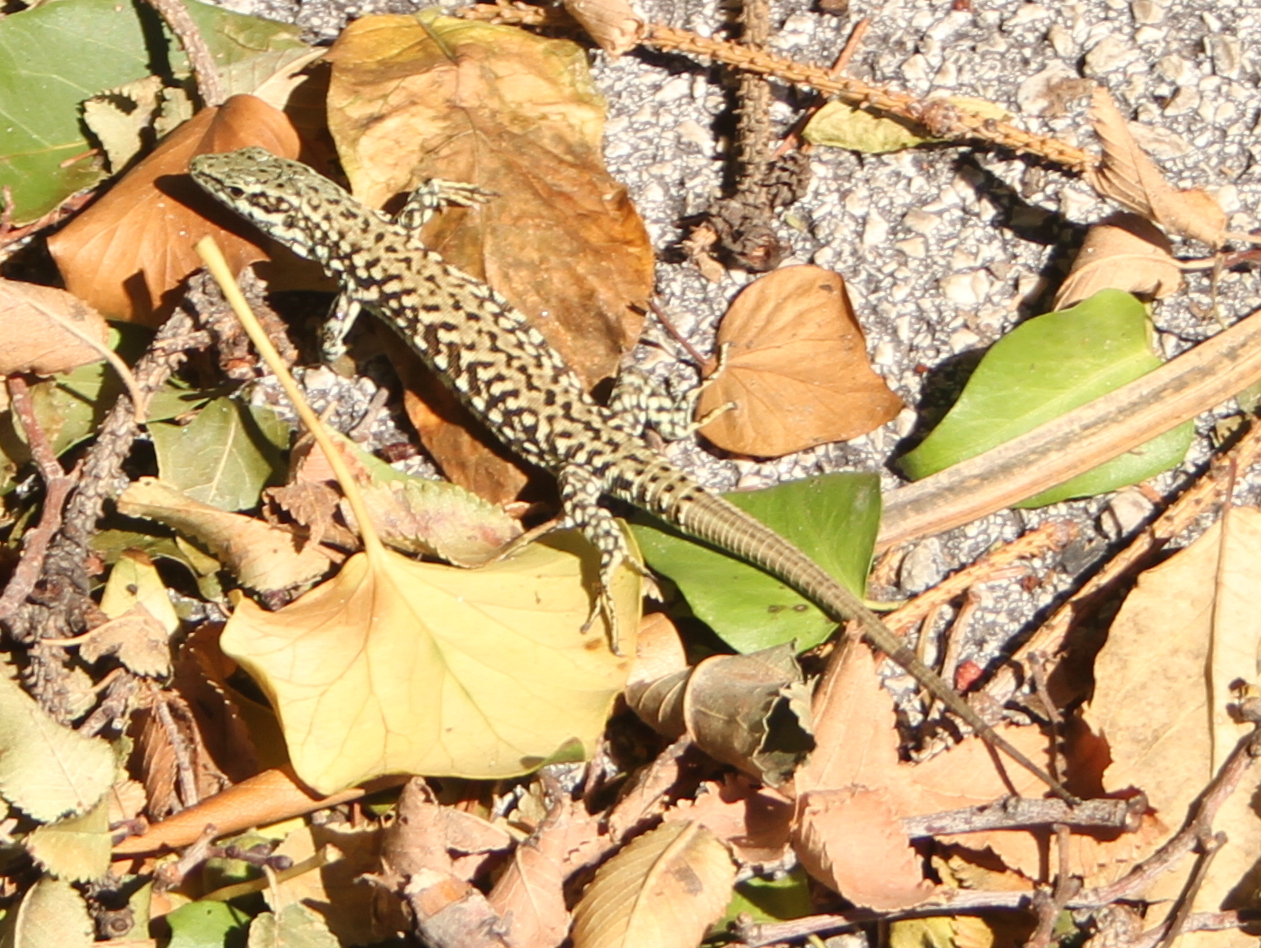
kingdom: Animalia
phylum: Chordata
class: Squamata
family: Lacertidae
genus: Podarcis
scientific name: Podarcis muralis
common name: Common wall lizard
